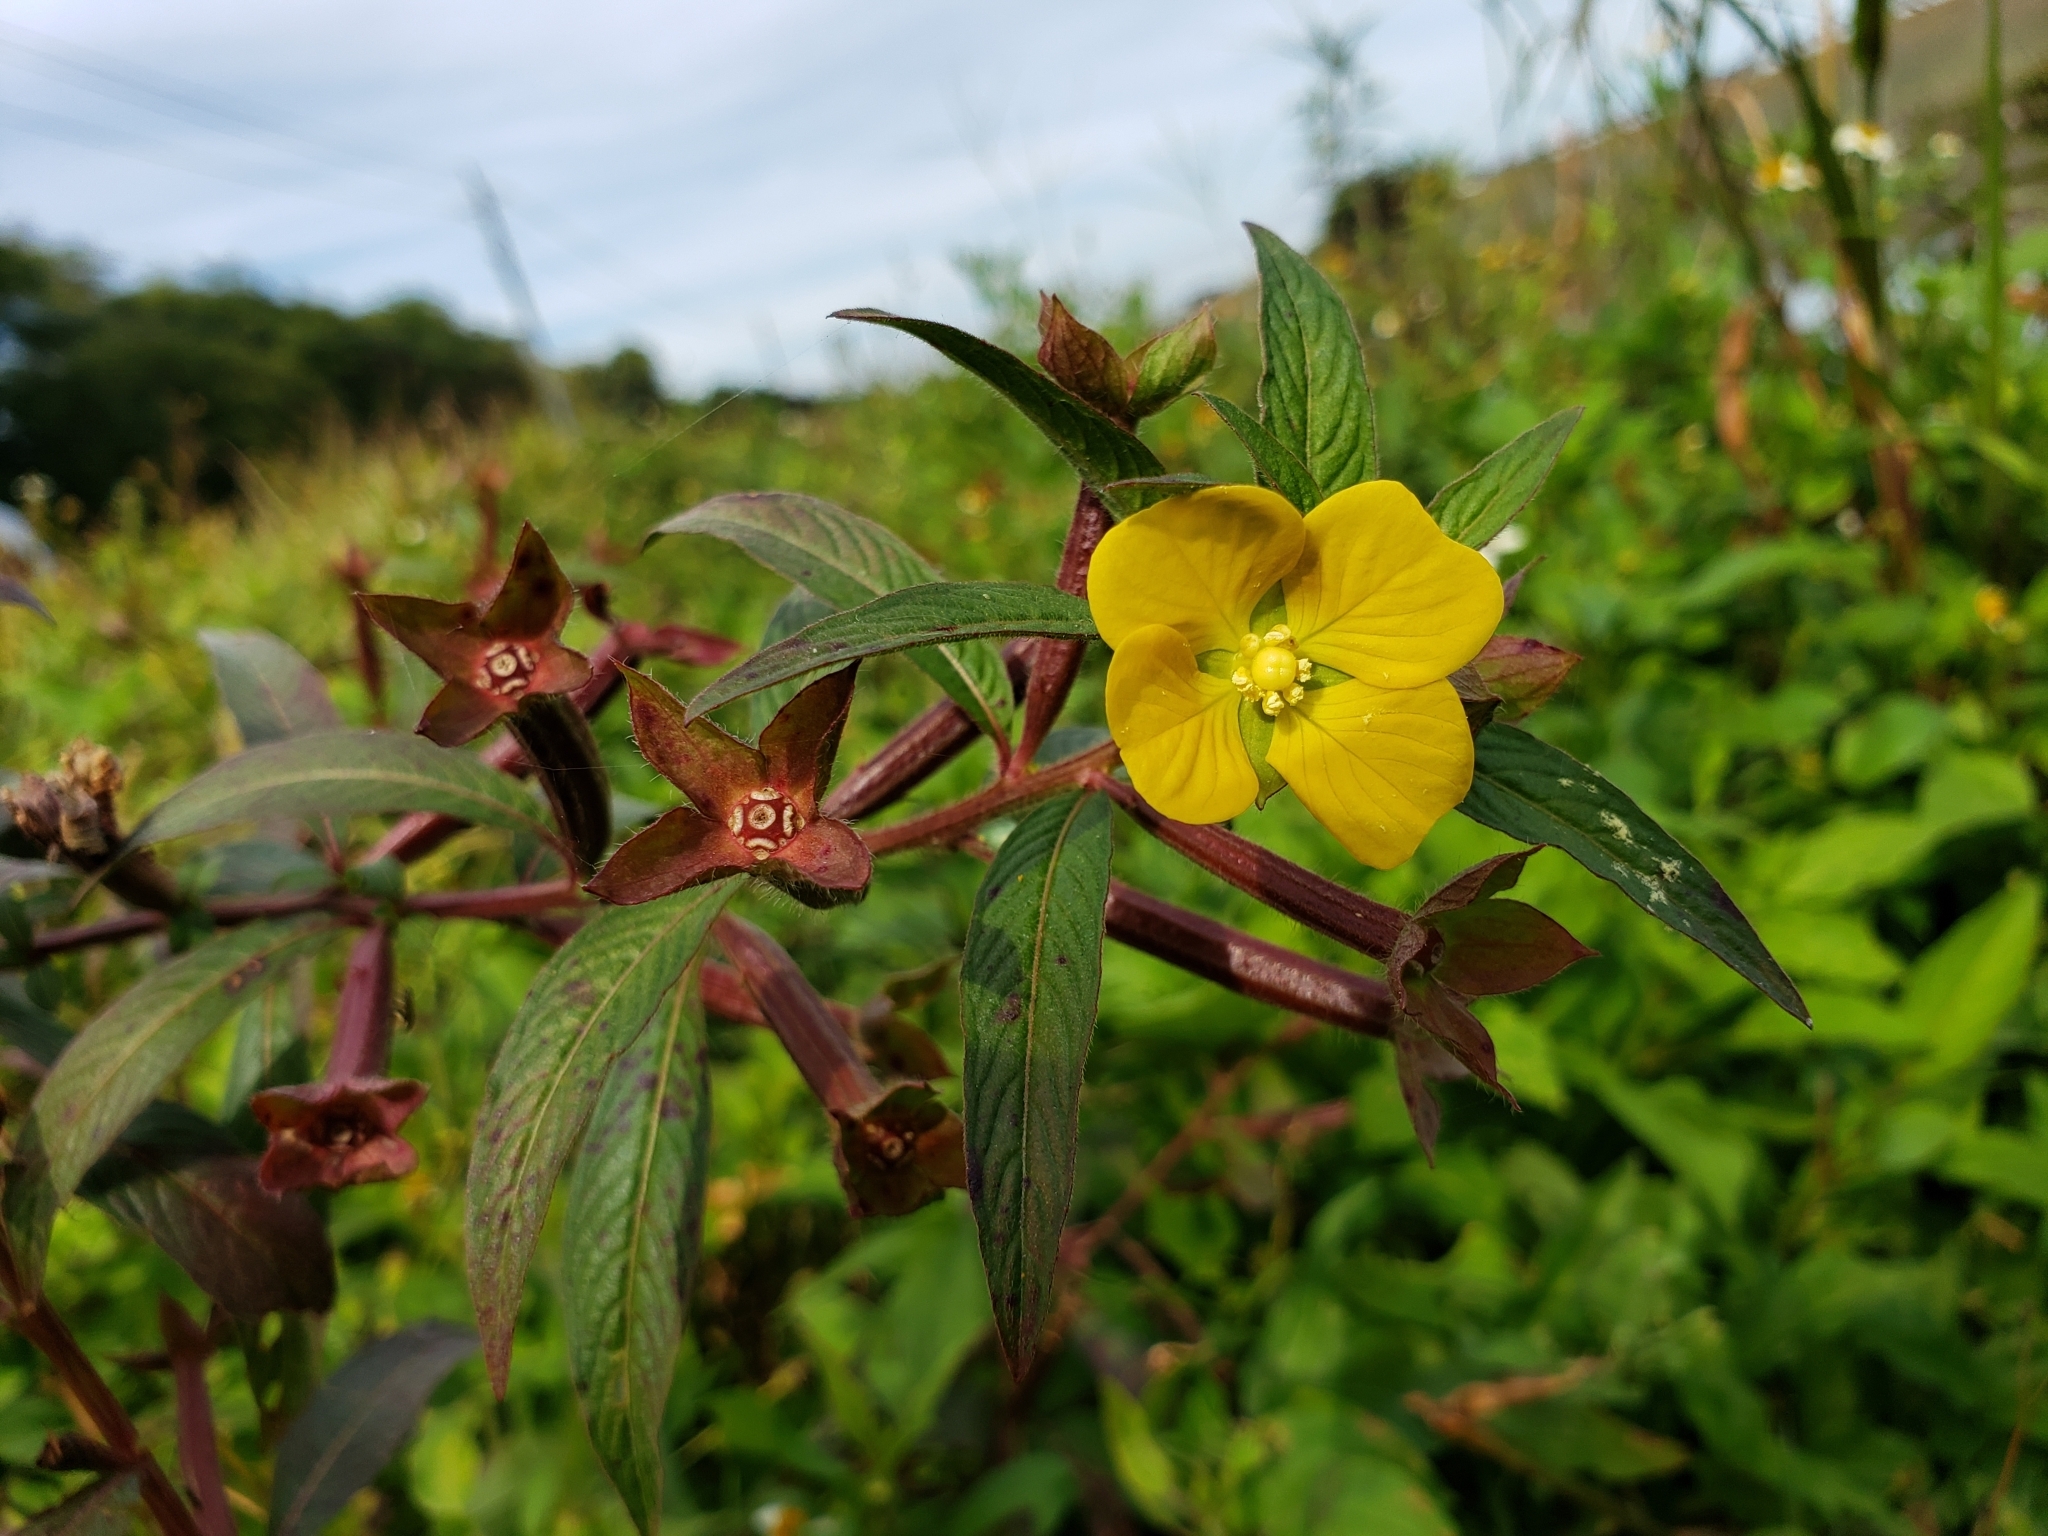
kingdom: Plantae
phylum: Tracheophyta
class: Magnoliopsida
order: Myrtales
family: Onagraceae
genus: Ludwigia
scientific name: Ludwigia octovalvis
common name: Water-primrose
